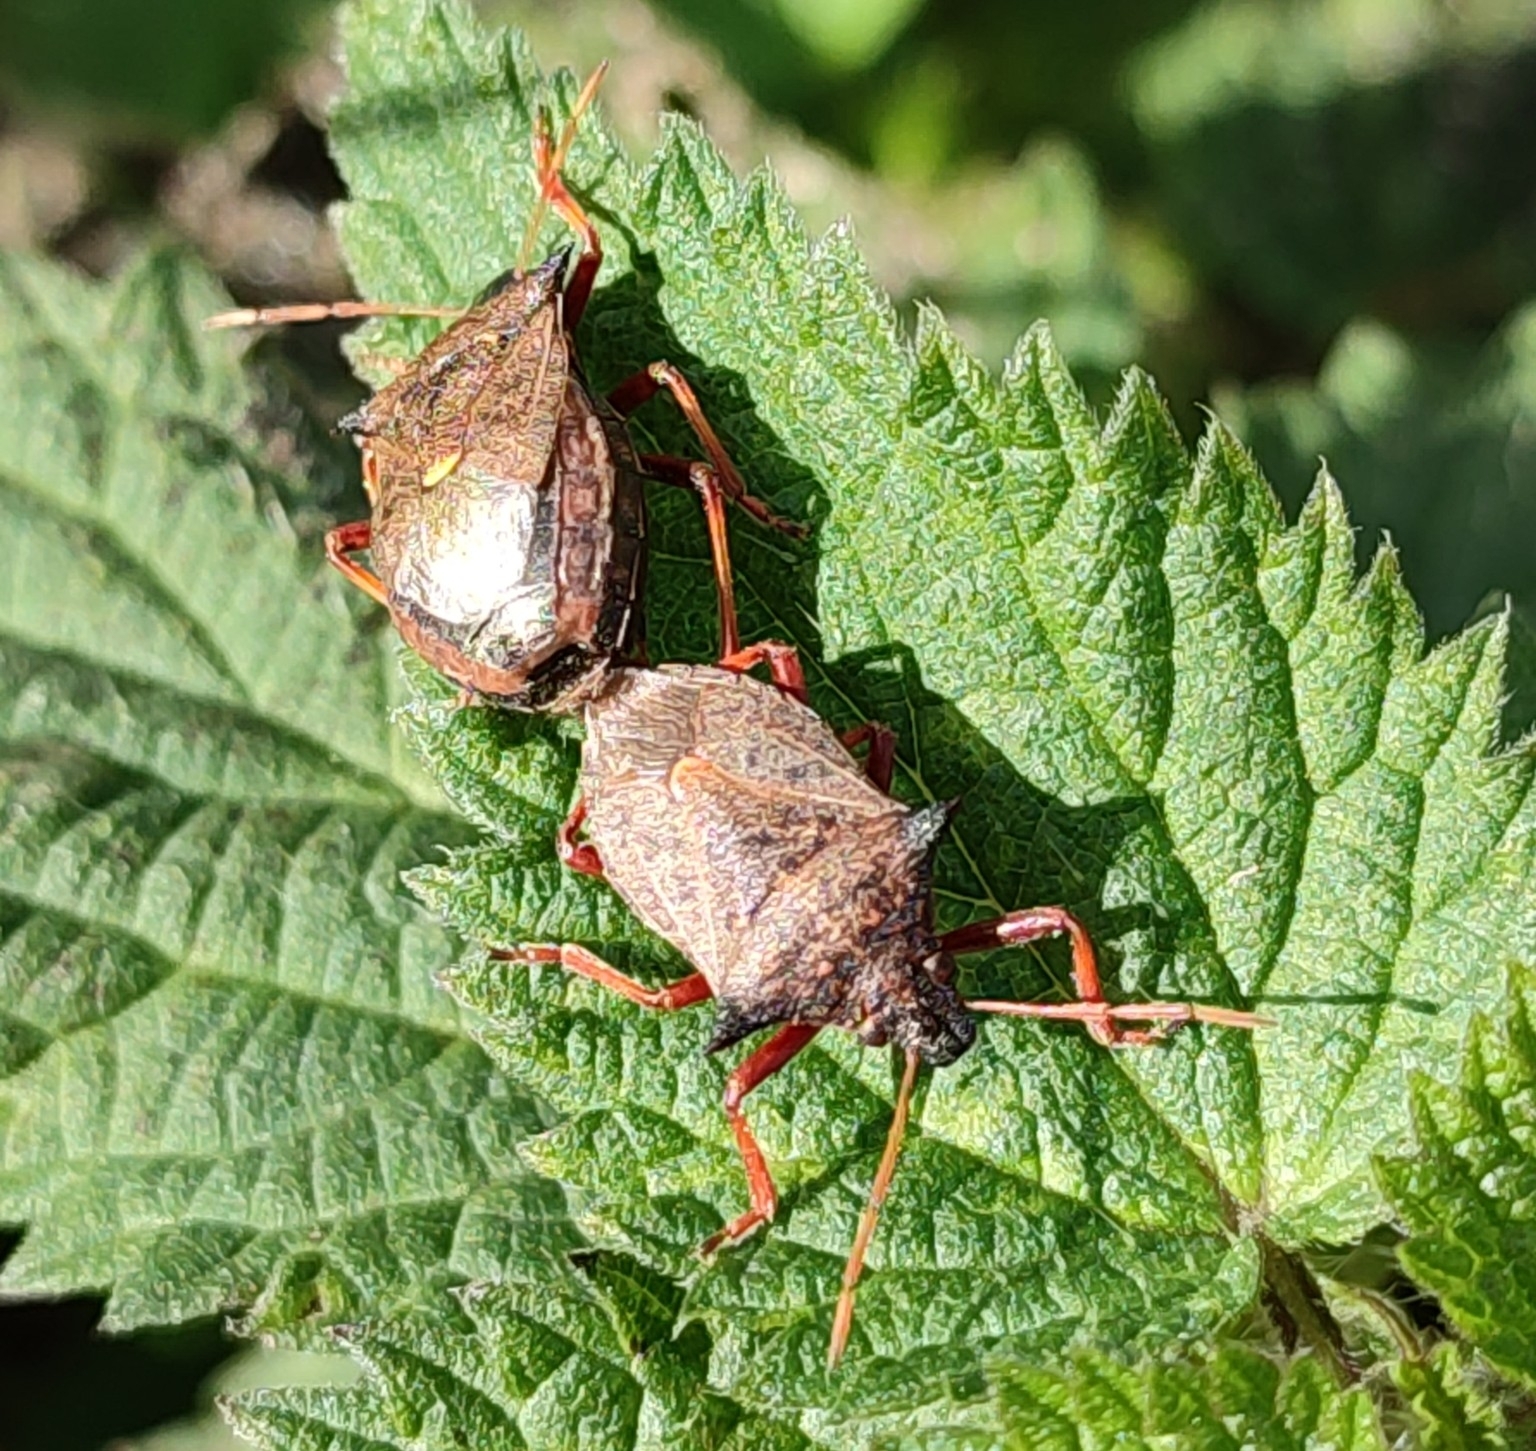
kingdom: Animalia
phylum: Arthropoda
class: Insecta
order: Hemiptera
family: Pentatomidae
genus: Picromerus
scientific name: Picromerus bidens
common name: Spiked shieldbug
